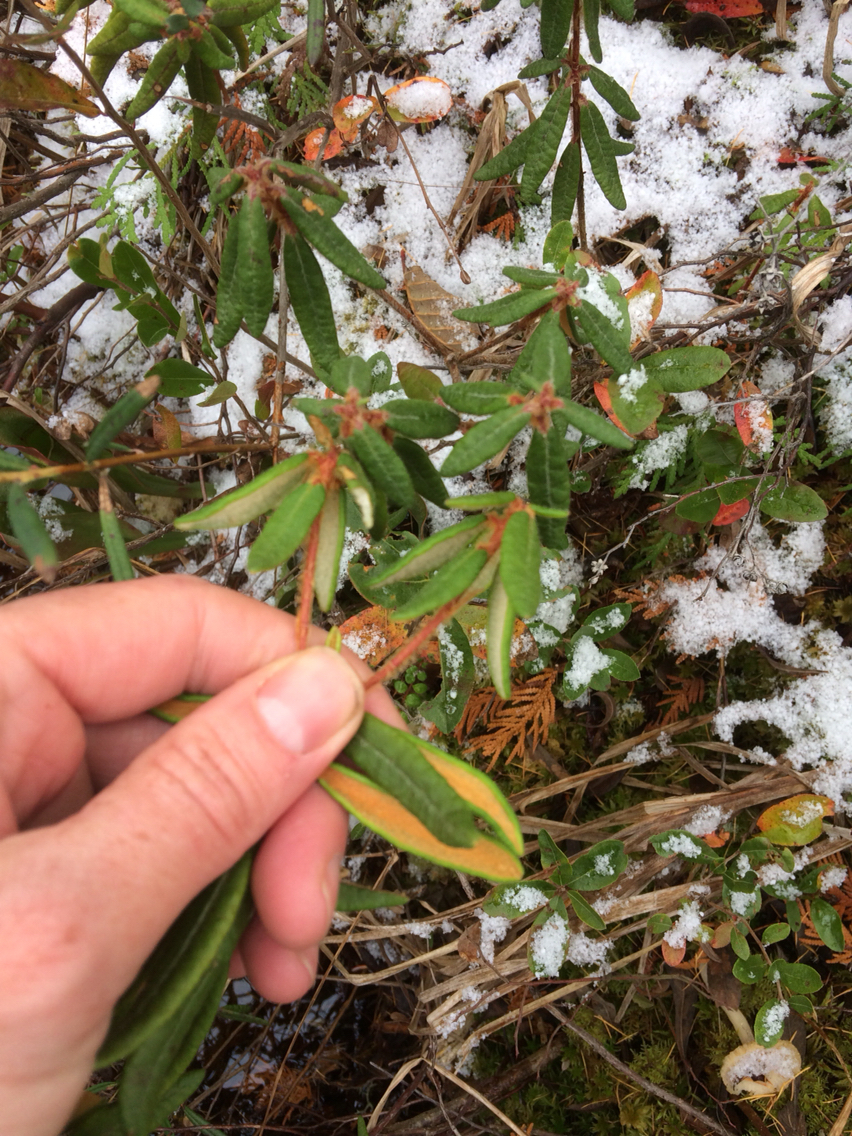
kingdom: Plantae
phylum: Tracheophyta
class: Magnoliopsida
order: Ericales
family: Ericaceae
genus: Rhododendron
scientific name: Rhododendron groenlandicum
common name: Bog labrador tea
